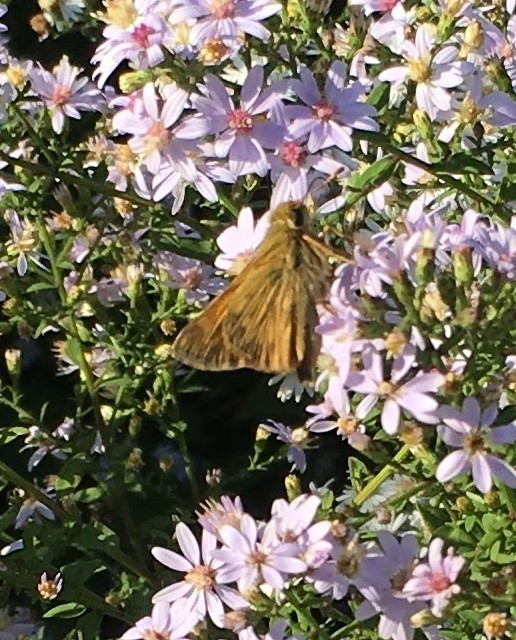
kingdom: Animalia
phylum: Arthropoda
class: Insecta
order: Lepidoptera
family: Hesperiidae
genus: Atalopedes
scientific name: Atalopedes
